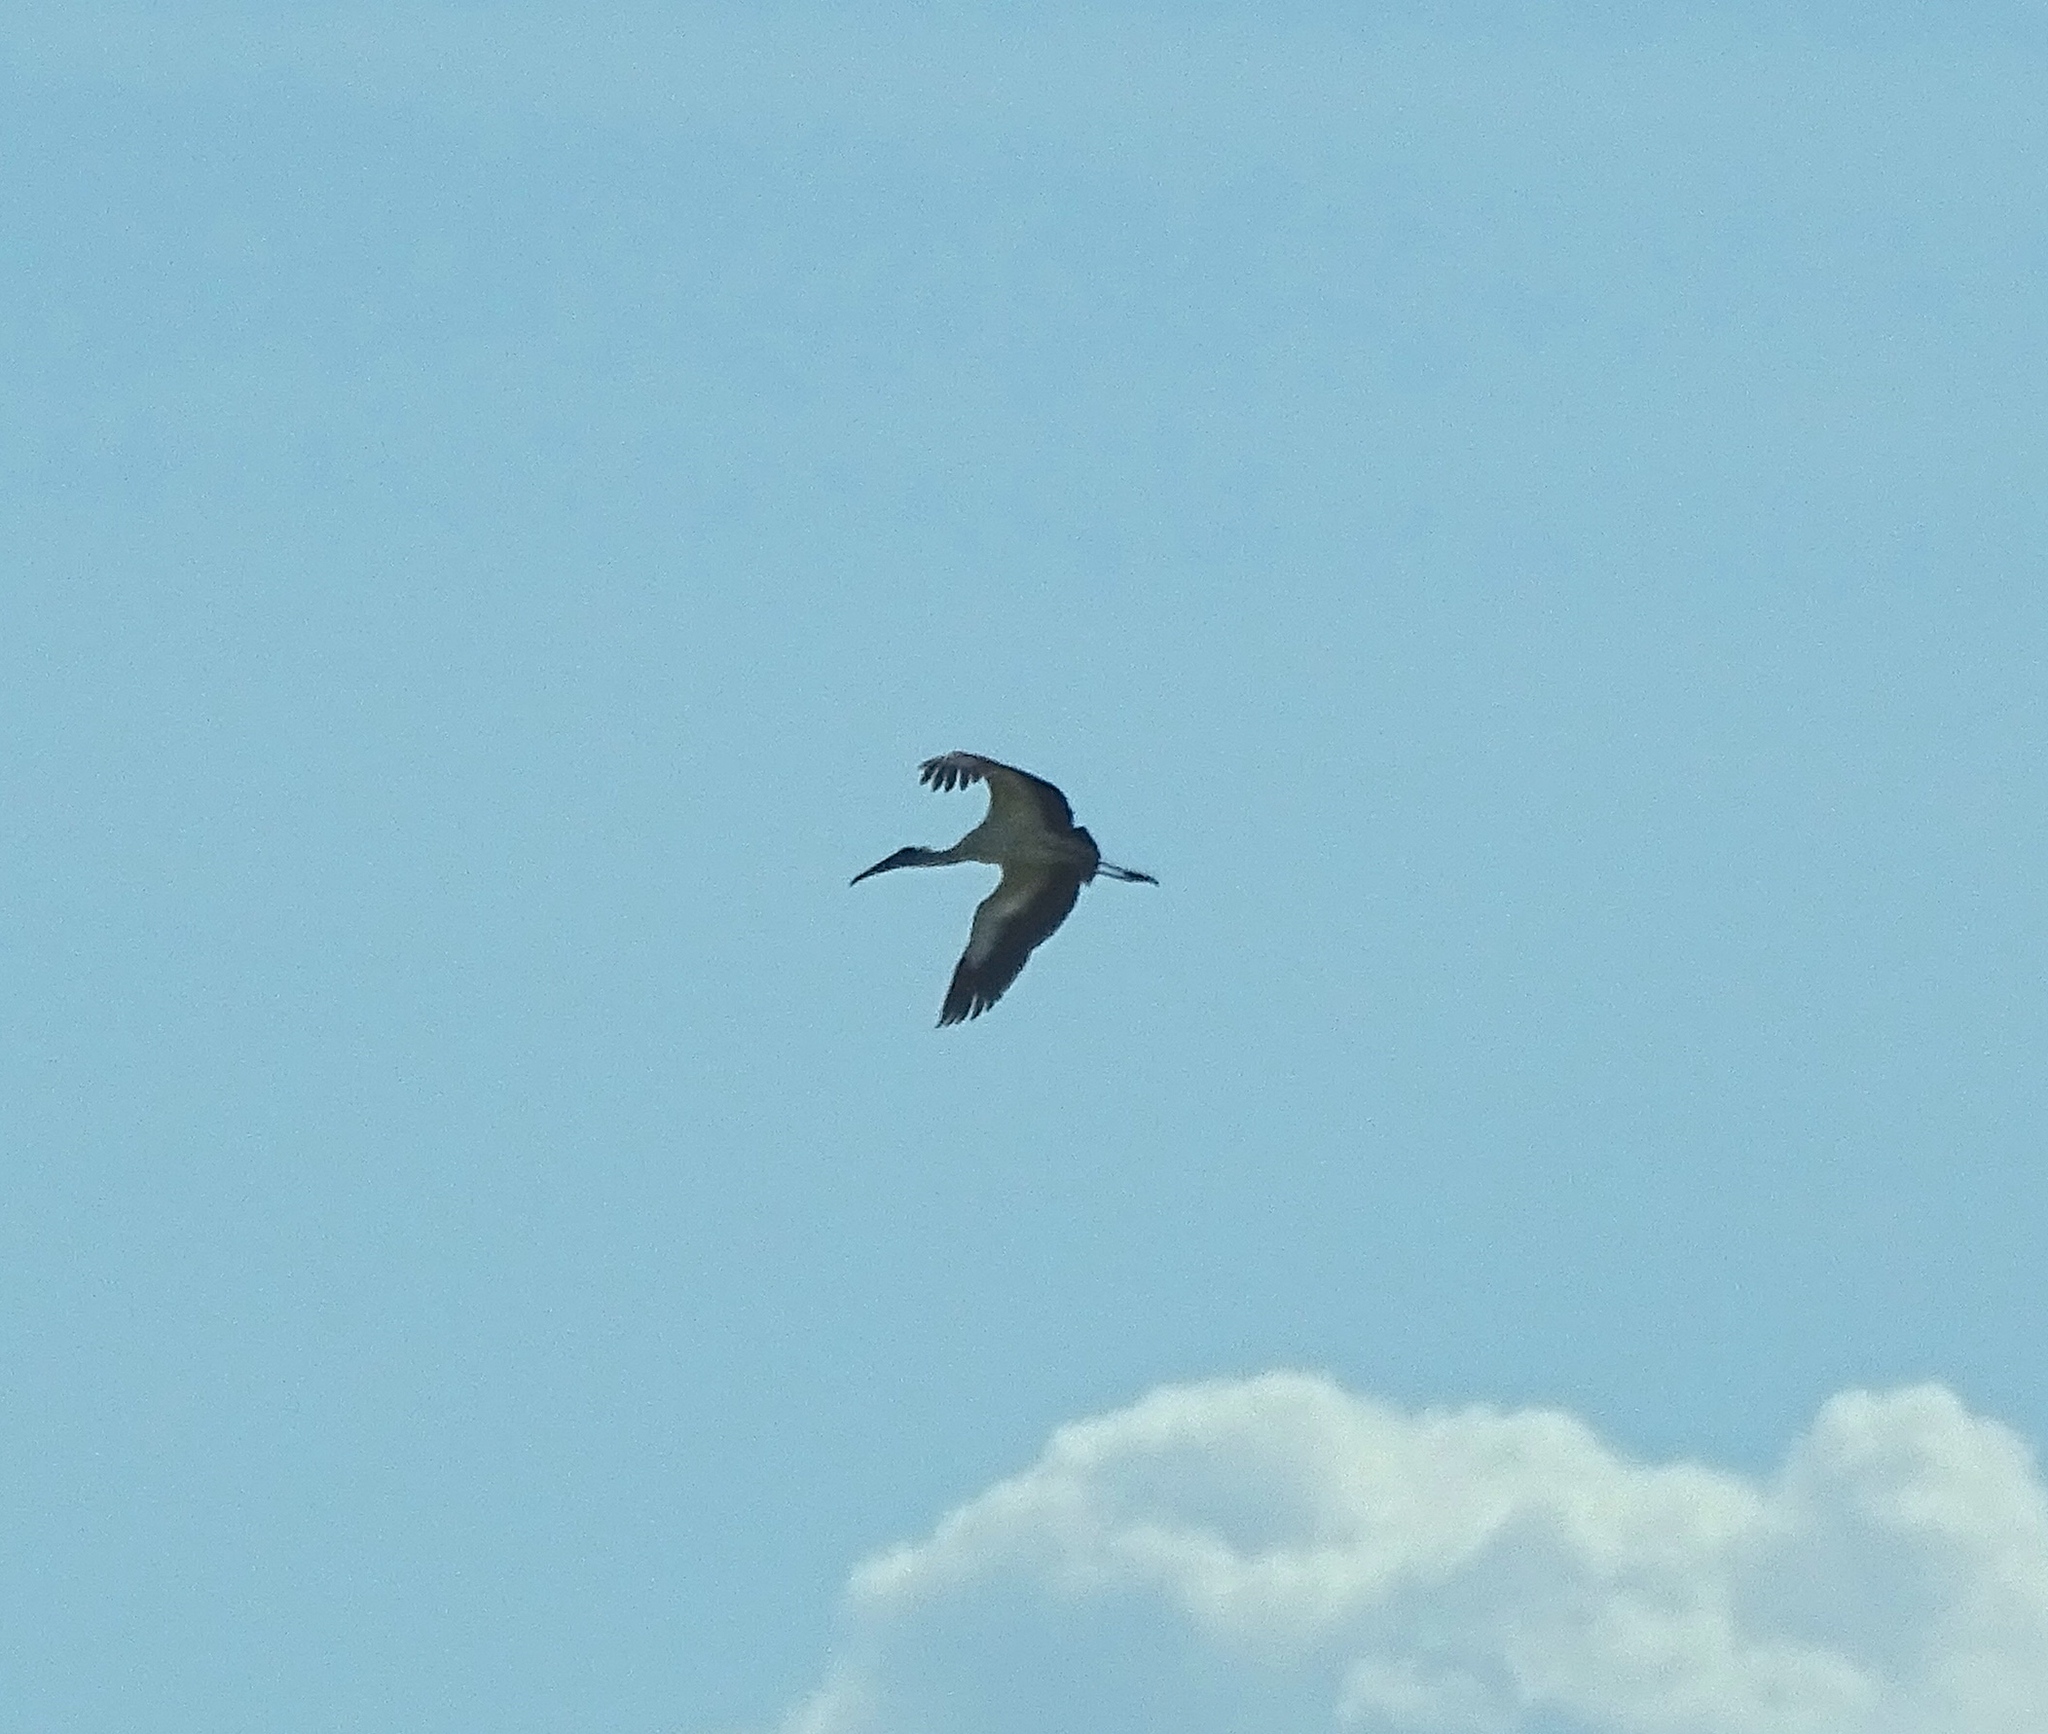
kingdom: Animalia
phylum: Chordata
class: Aves
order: Ciconiiformes
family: Ciconiidae
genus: Mycteria
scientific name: Mycteria americana
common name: Wood stork
